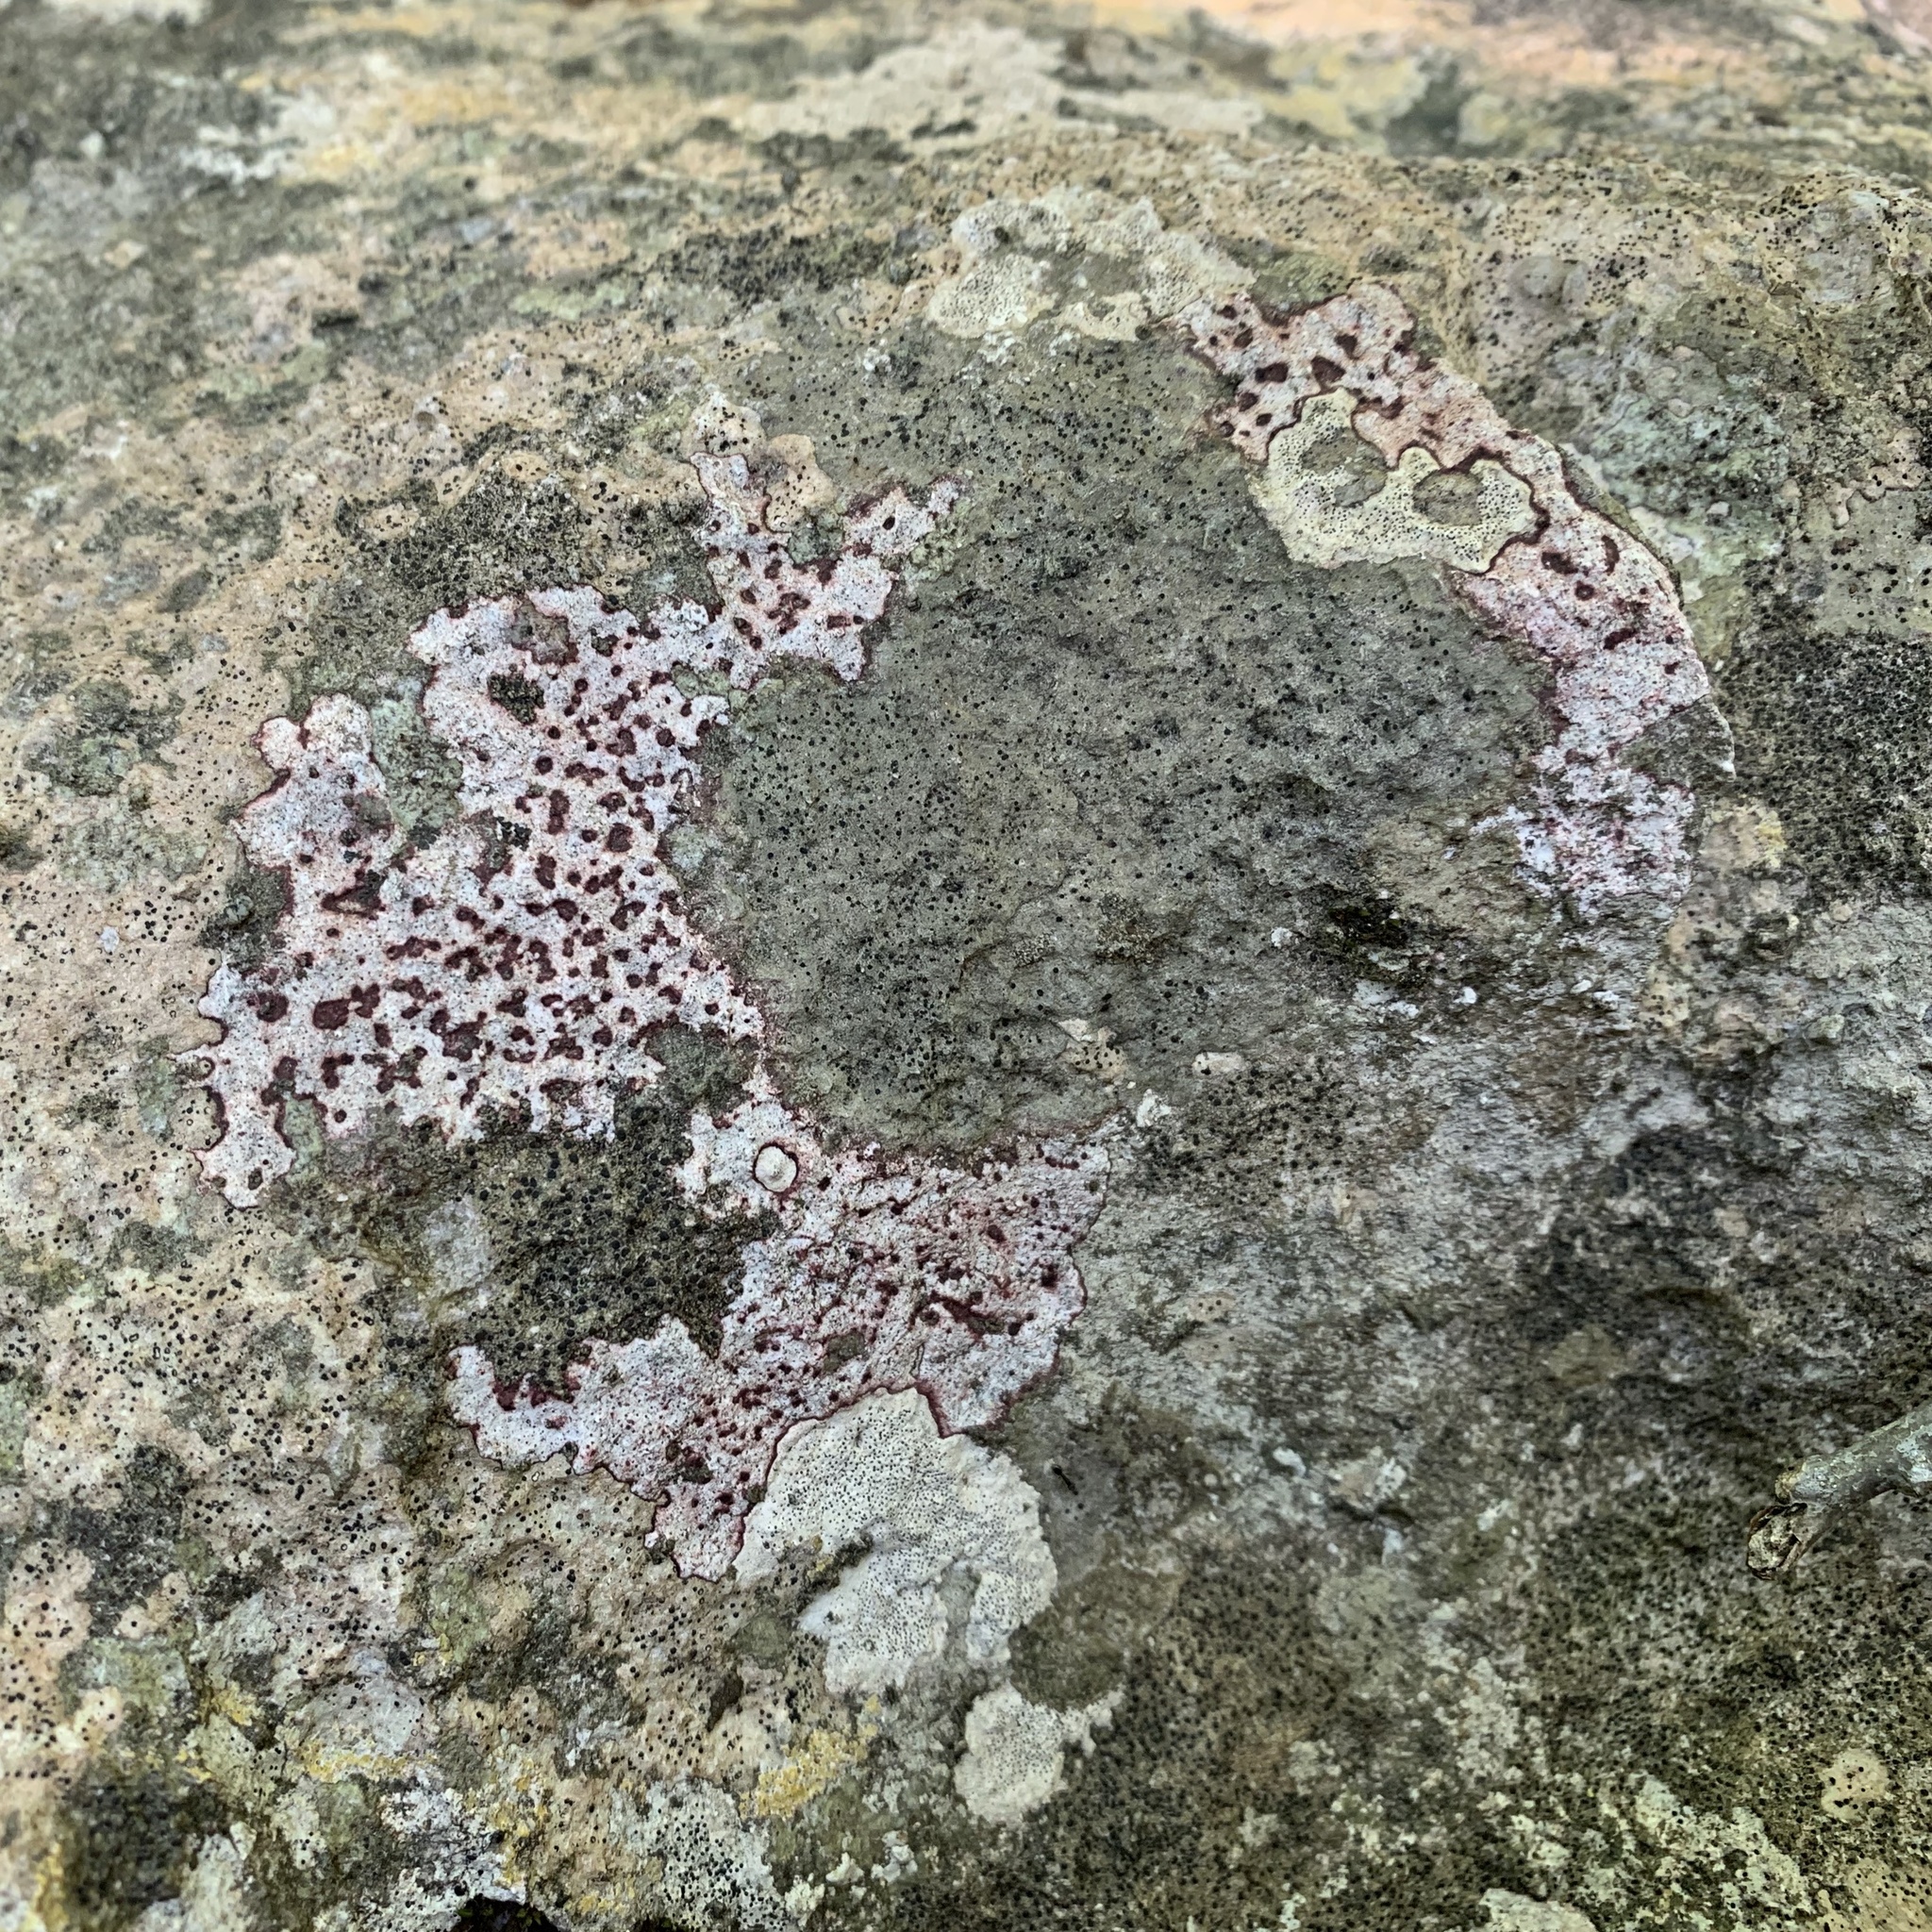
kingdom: Fungi
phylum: Ascomycota
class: Eurotiomycetes
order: Verrucariales
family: Verrucariaceae
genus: Bagliettoa
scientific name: Bagliettoa marmorea
